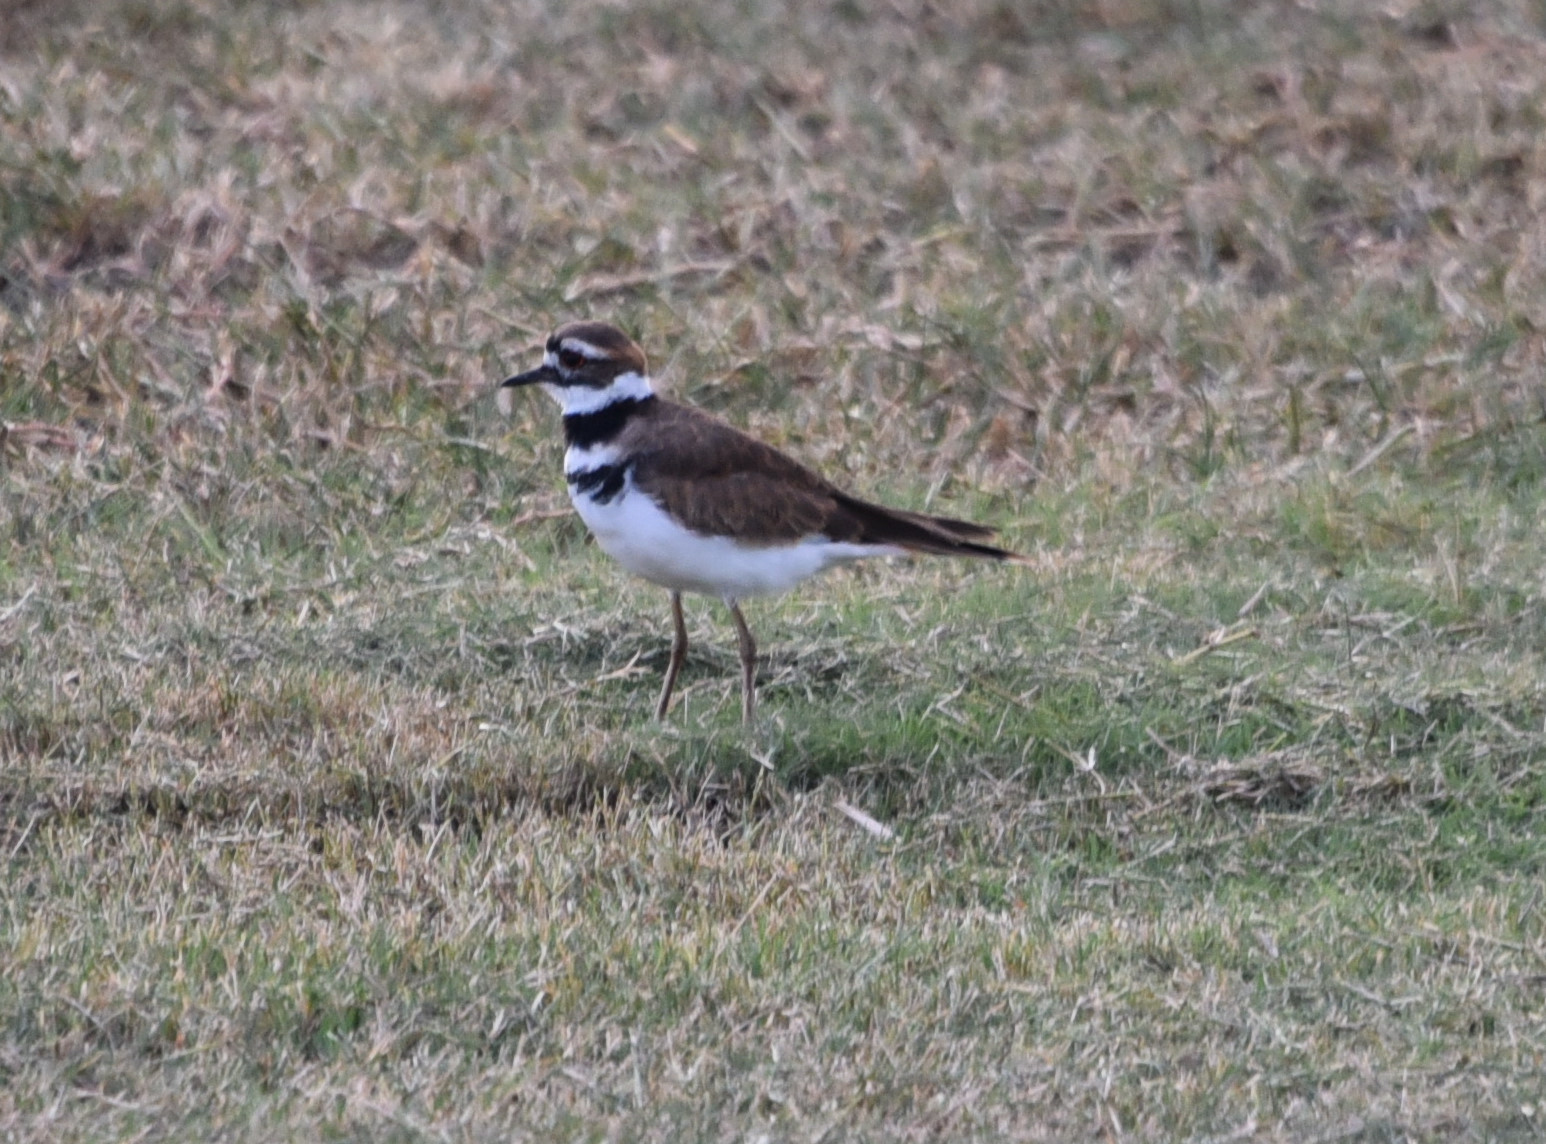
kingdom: Animalia
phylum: Chordata
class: Aves
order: Charadriiformes
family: Charadriidae
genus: Charadrius
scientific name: Charadrius vociferus
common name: Killdeer
